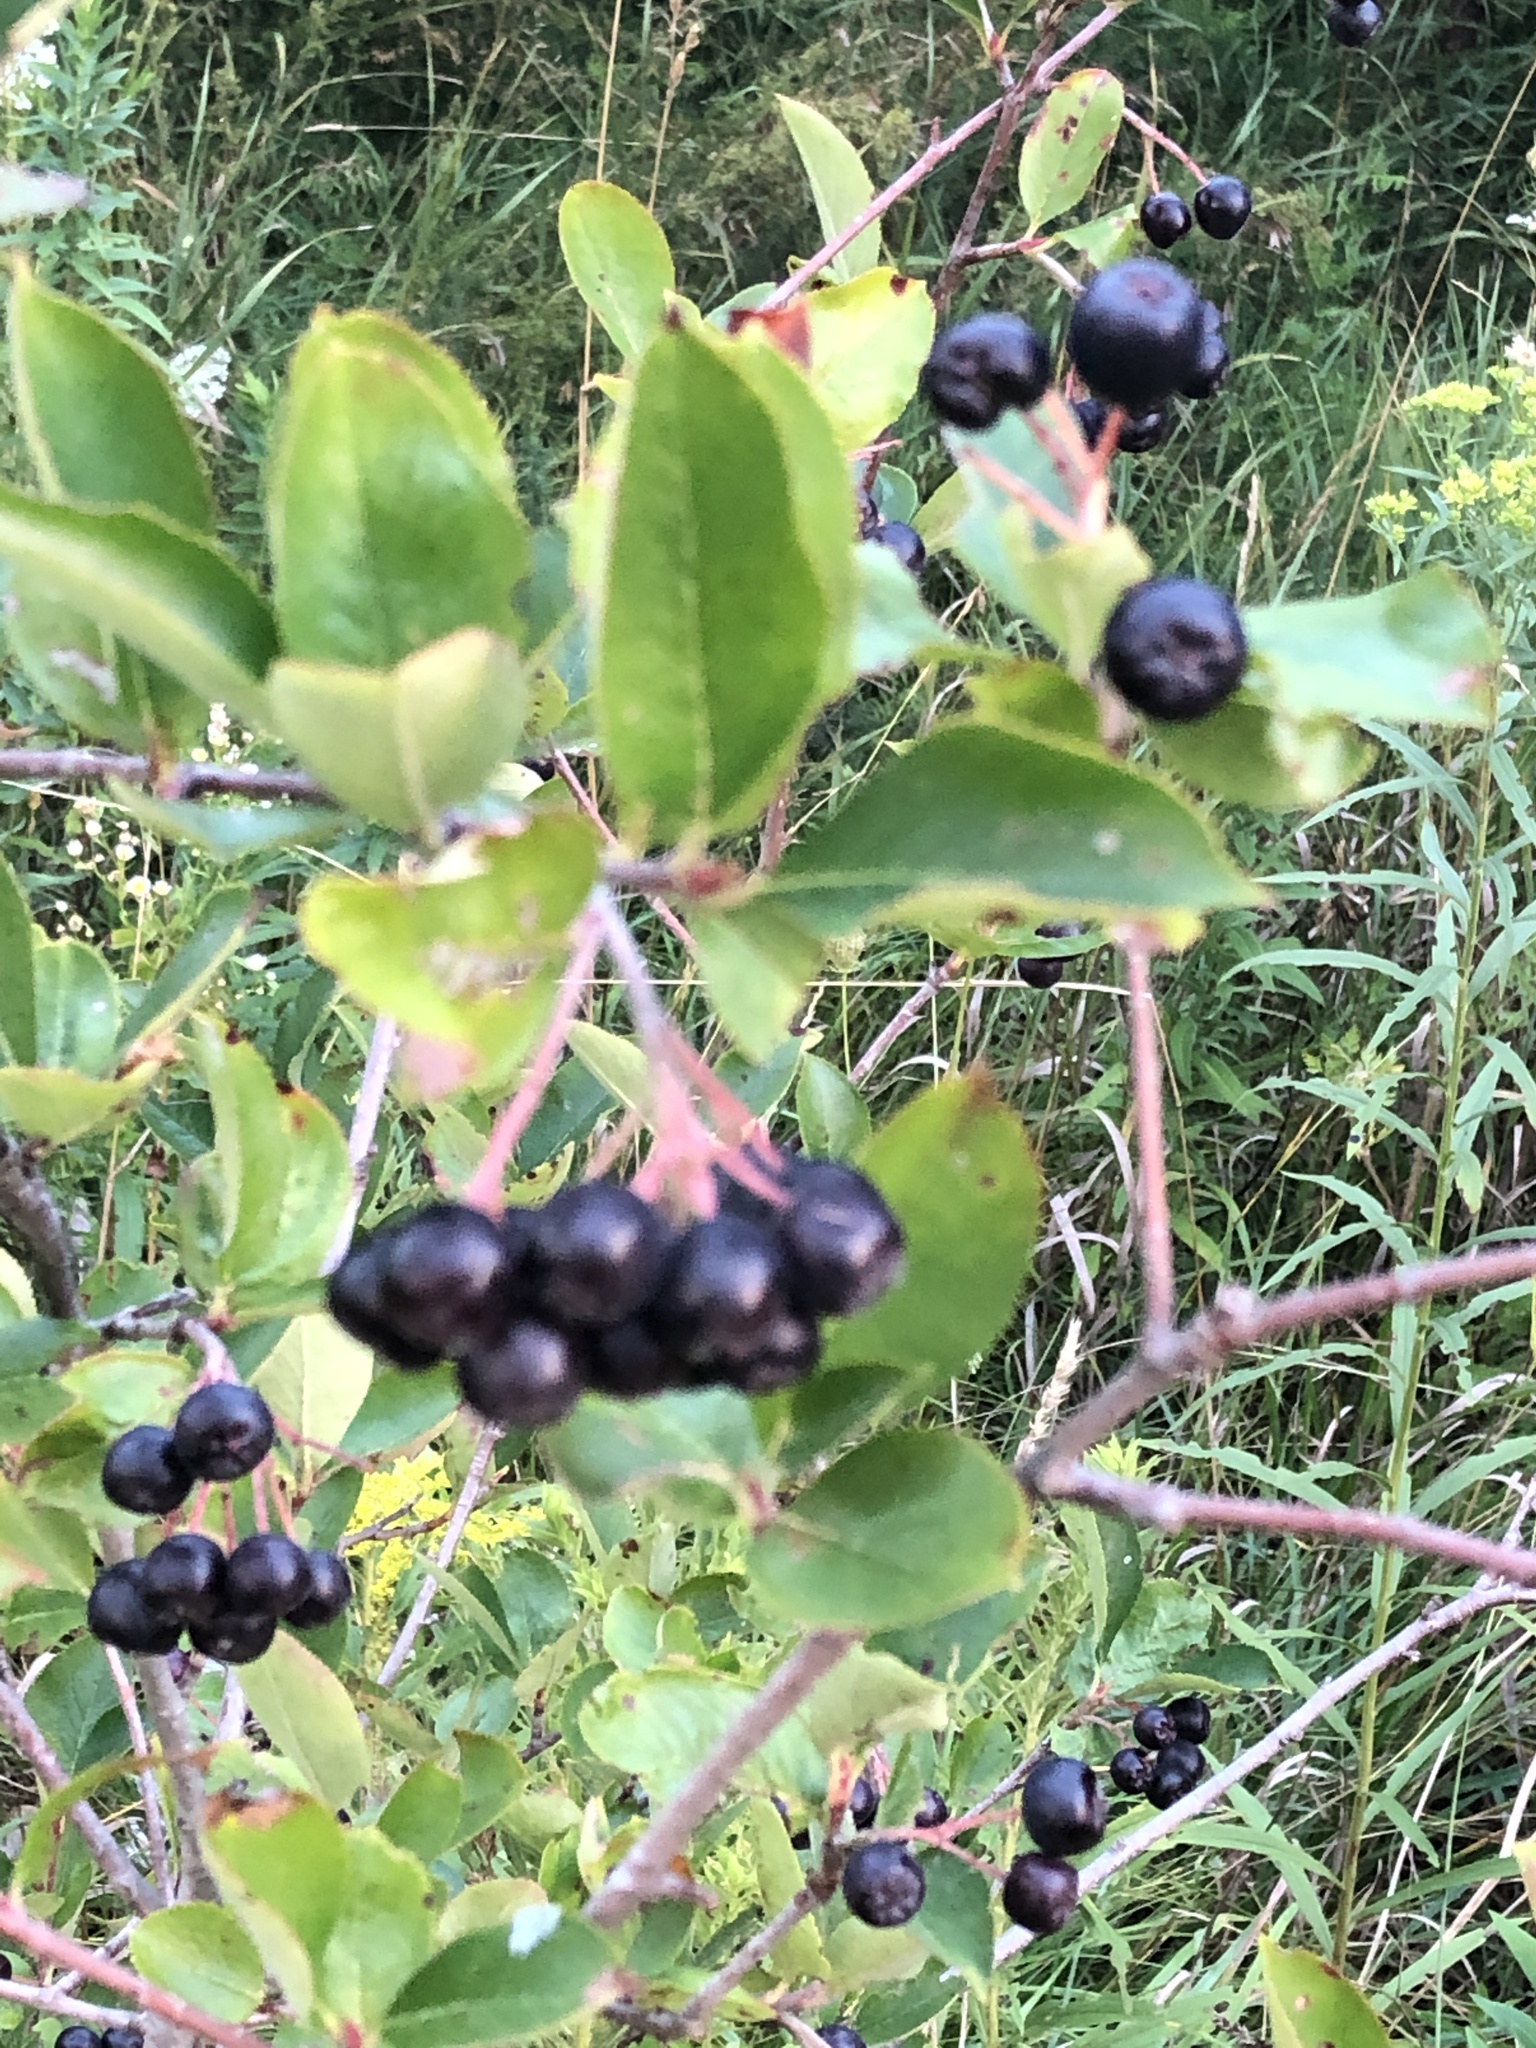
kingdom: Plantae
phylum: Tracheophyta
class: Magnoliopsida
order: Rosales
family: Rosaceae
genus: Aronia
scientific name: Aronia melanocarpa
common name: Black chokeberry
